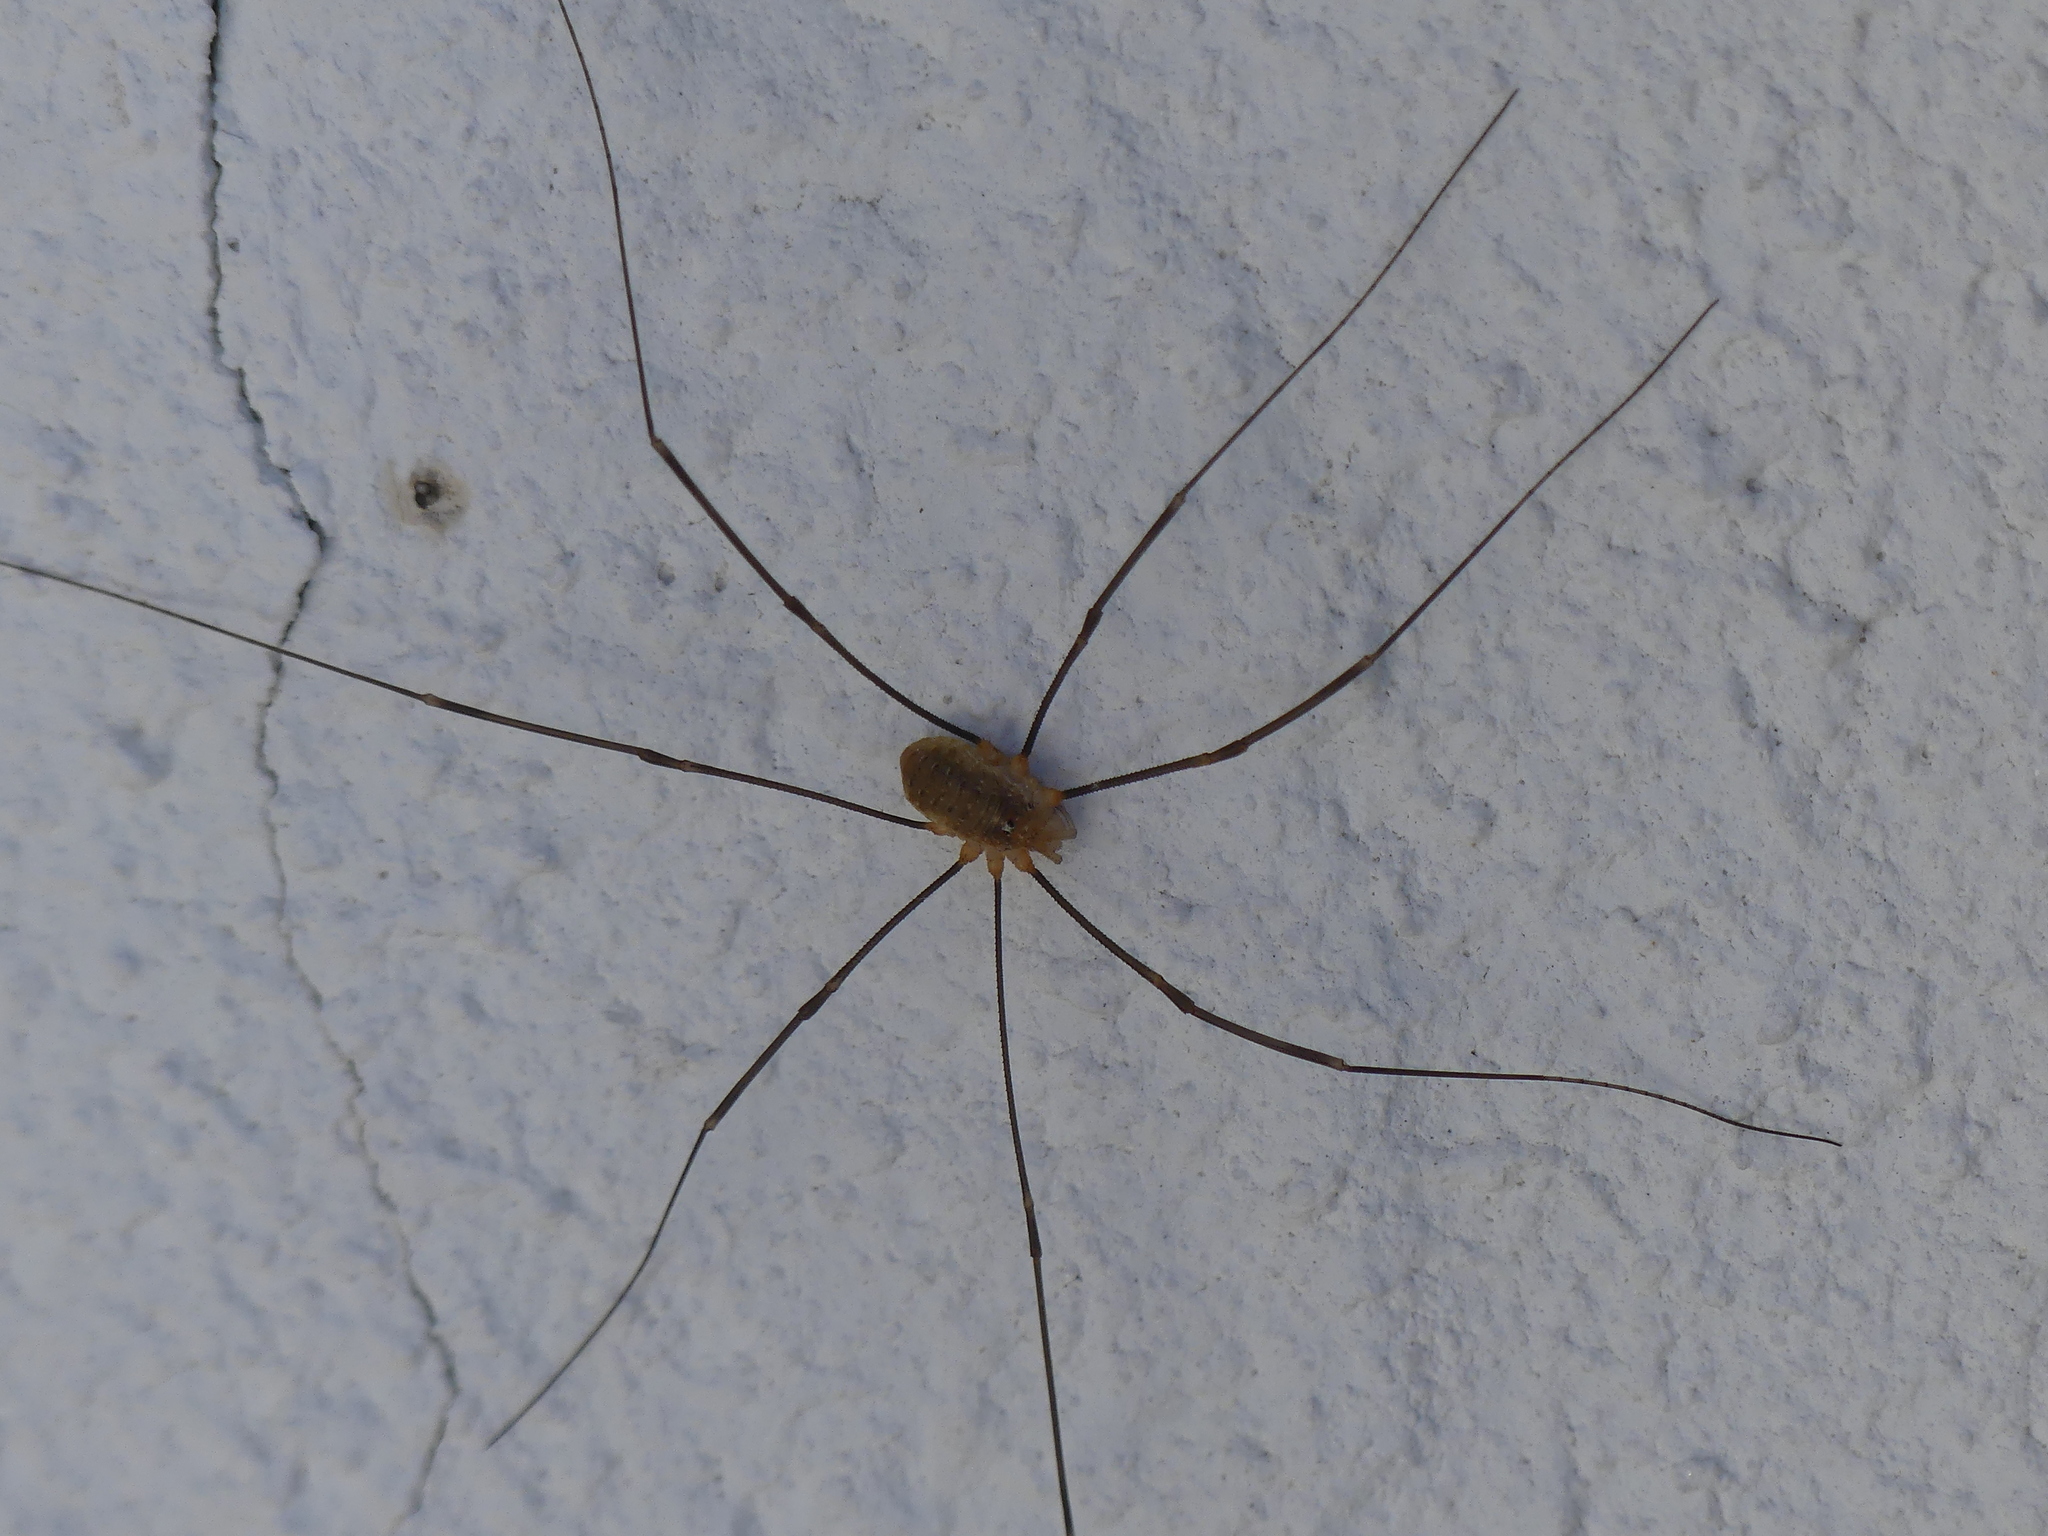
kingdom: Animalia
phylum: Arthropoda
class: Arachnida
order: Opiliones
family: Phalangiidae
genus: Opilio
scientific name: Opilio canestrinii
